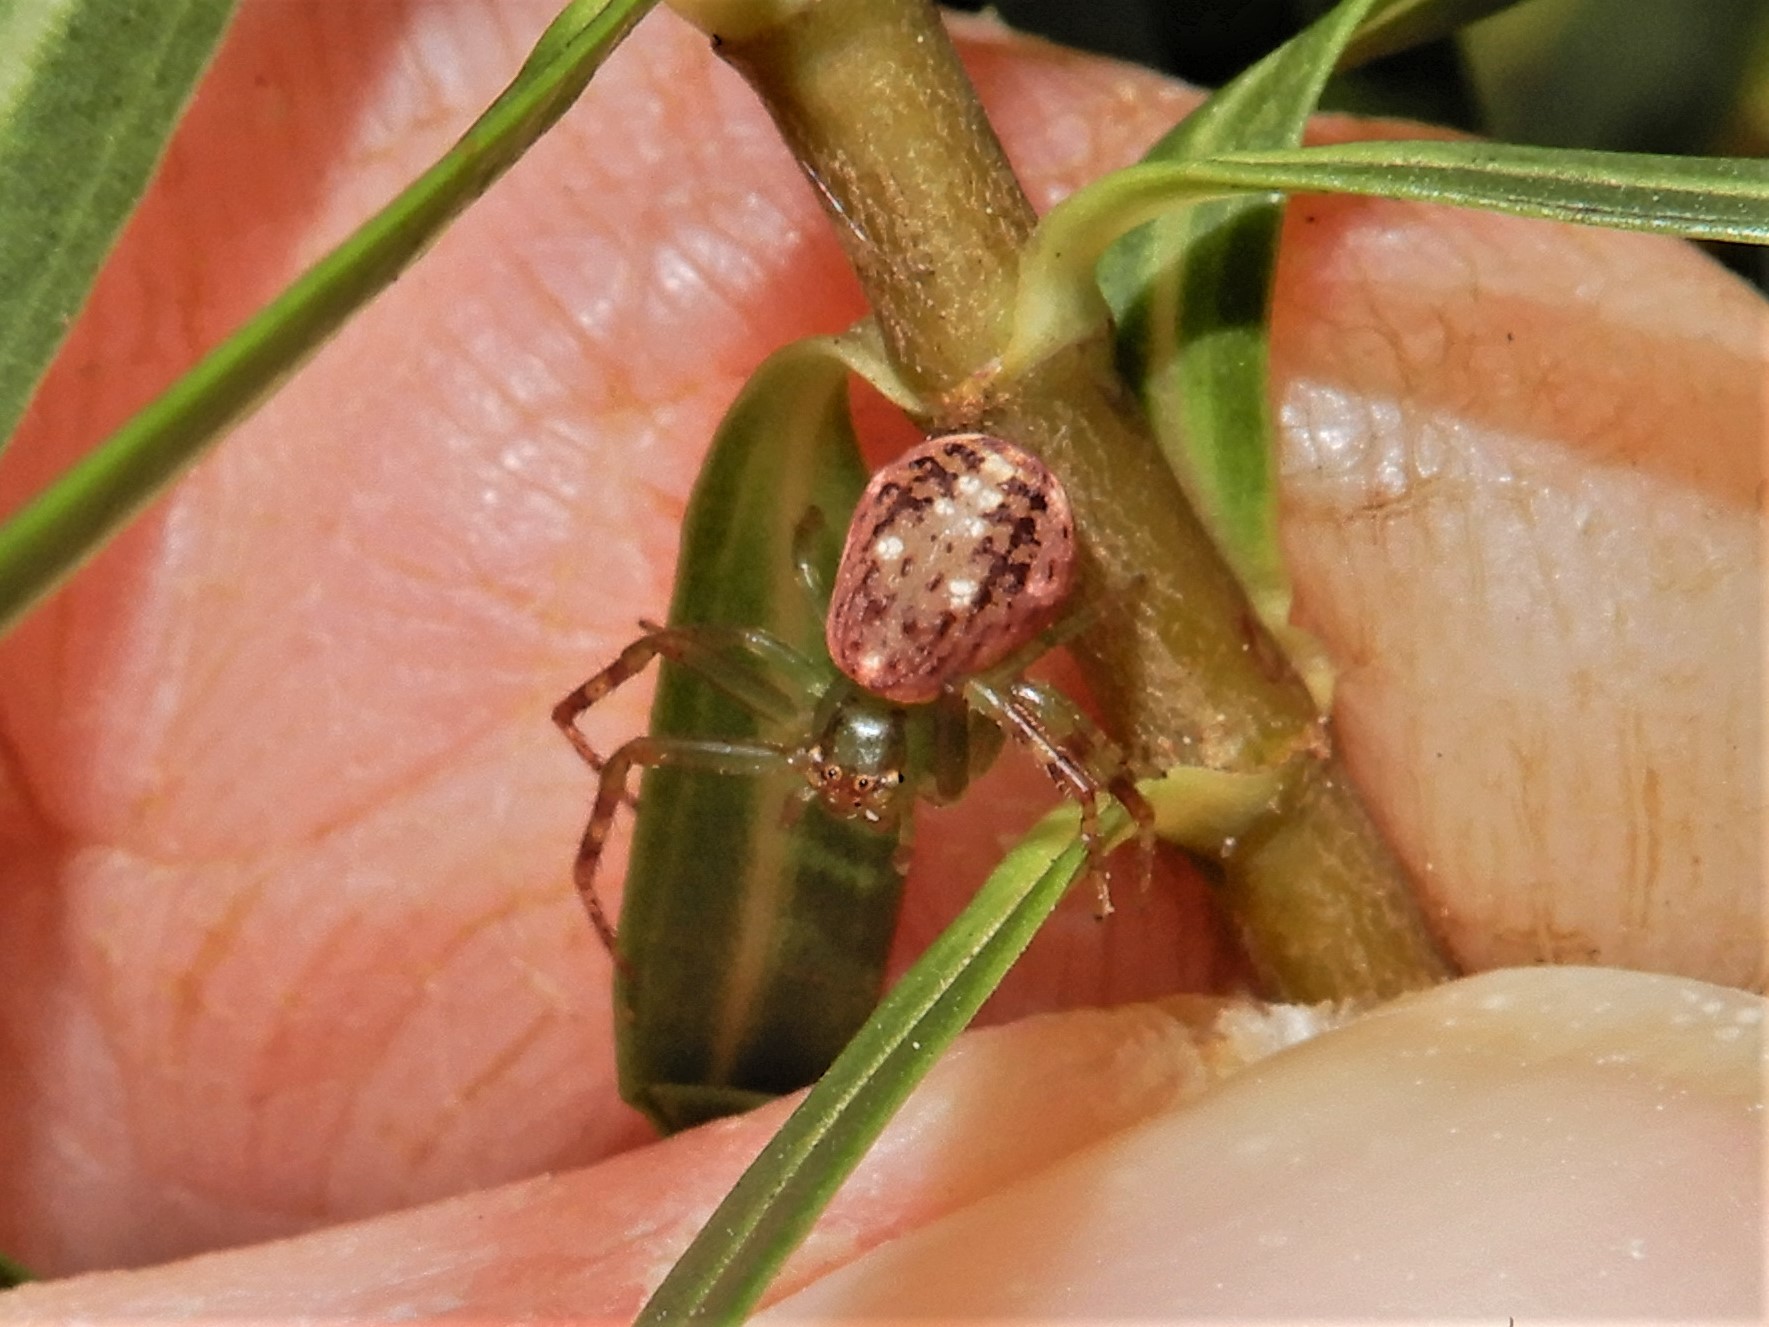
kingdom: Animalia
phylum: Arthropoda
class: Arachnida
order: Araneae
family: Thomisidae
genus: Diaea
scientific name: Diaea ambara
